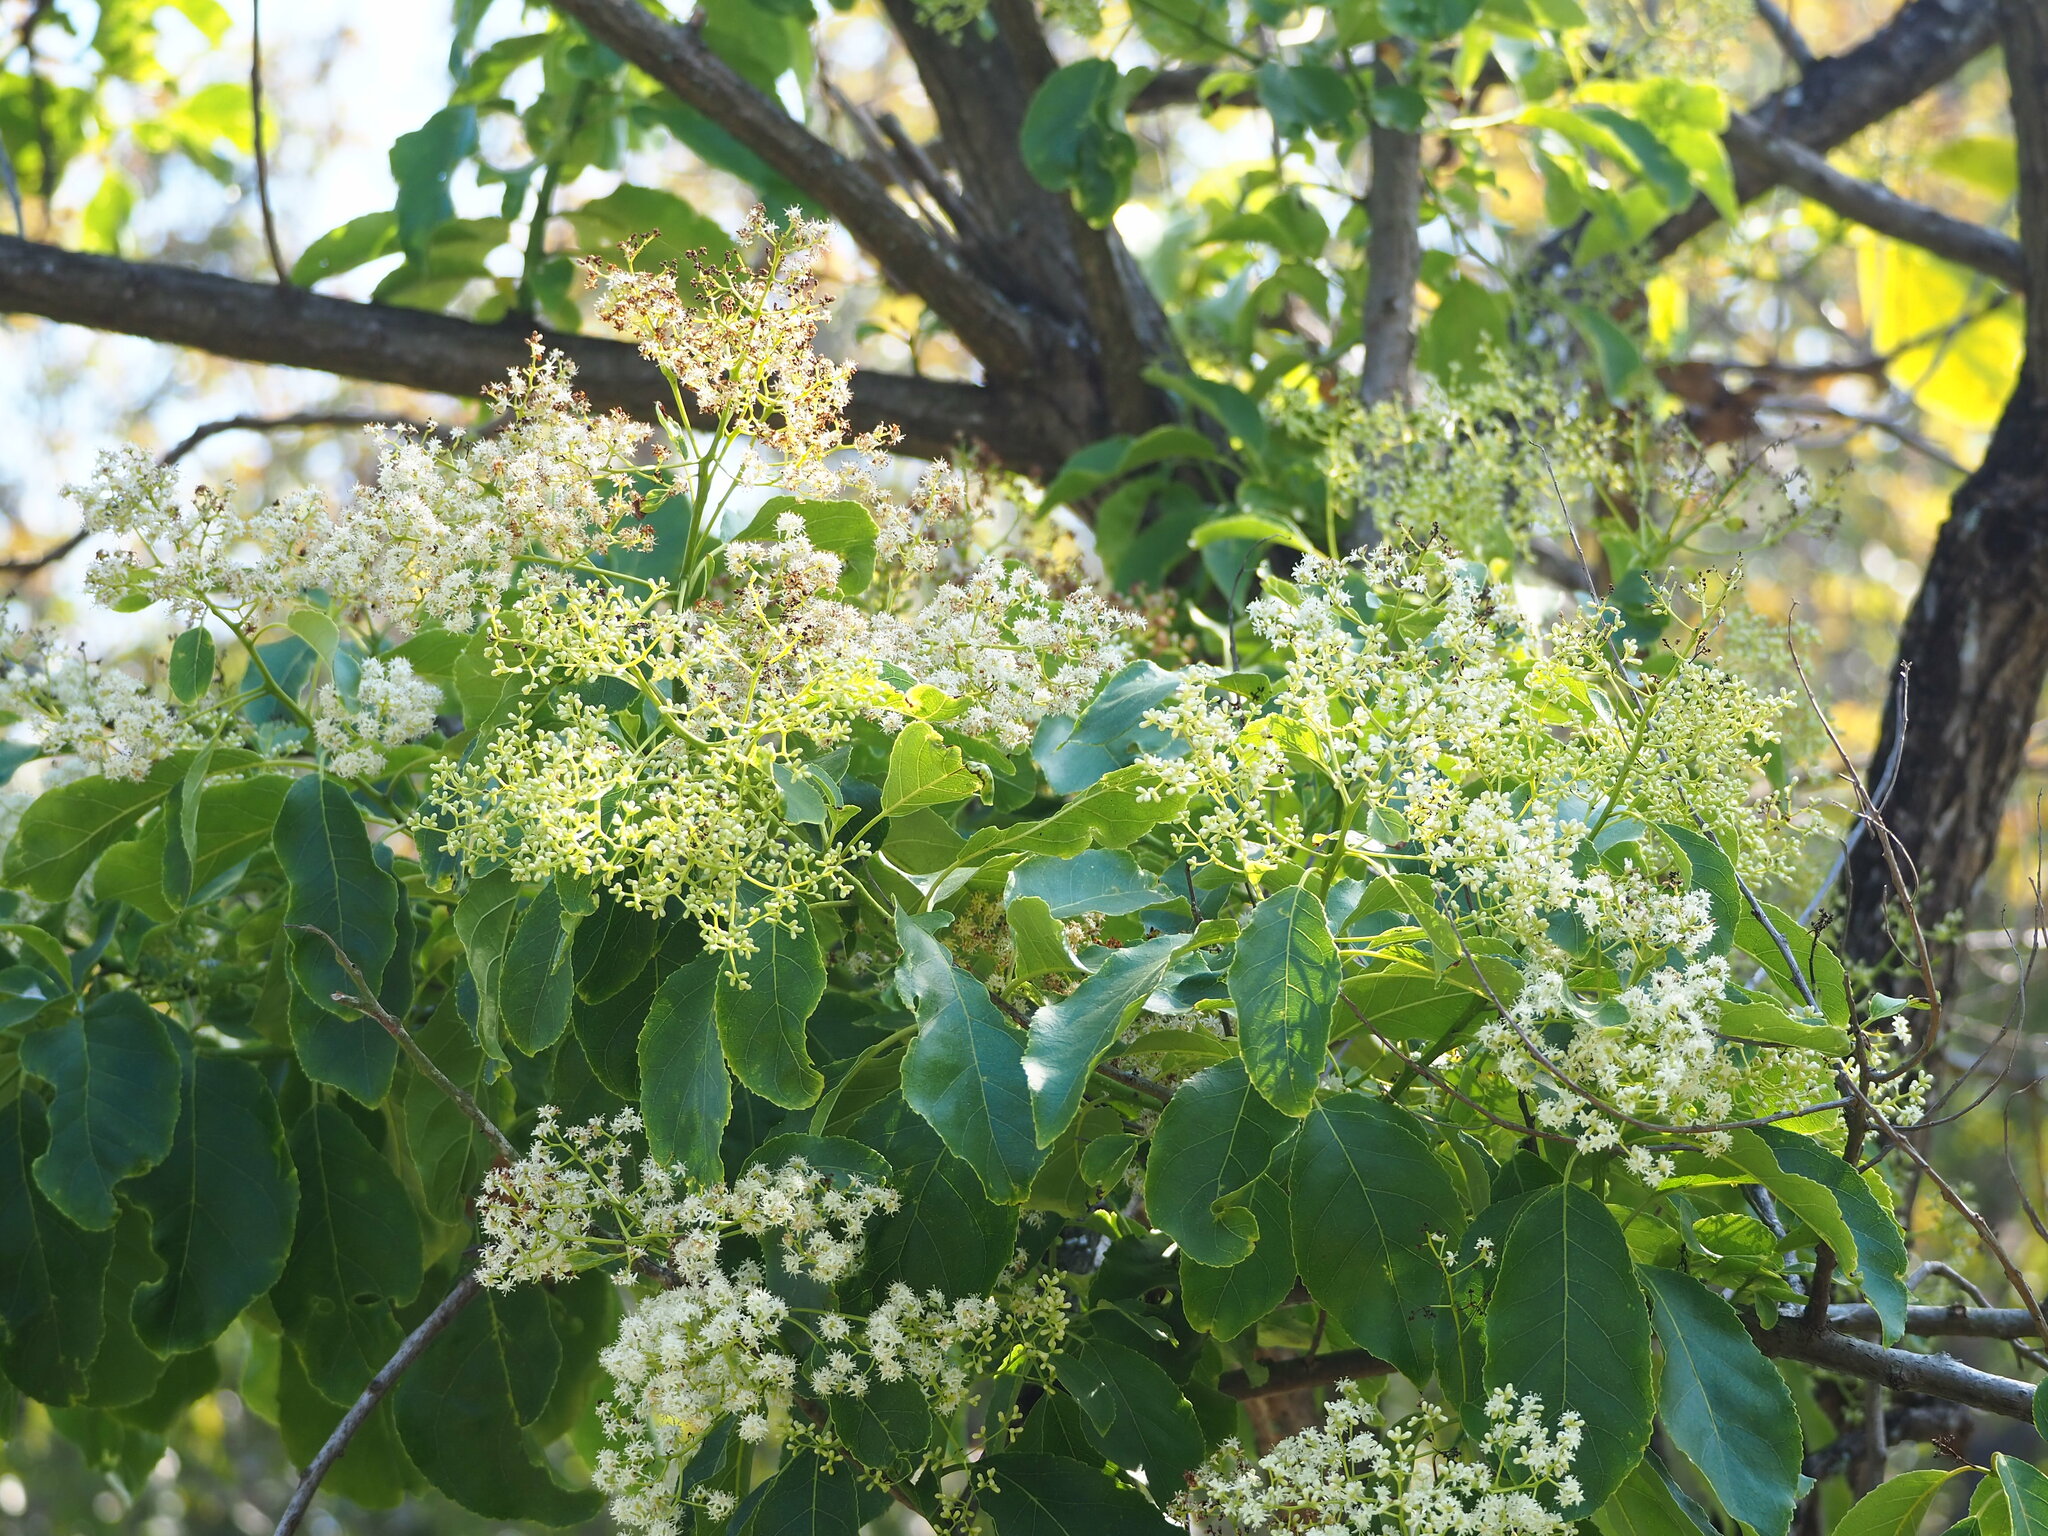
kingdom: Plantae
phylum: Tracheophyta
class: Magnoliopsida
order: Boraginales
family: Ehretiaceae
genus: Ehretia
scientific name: Ehretia acuminata
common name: Kodo wood
